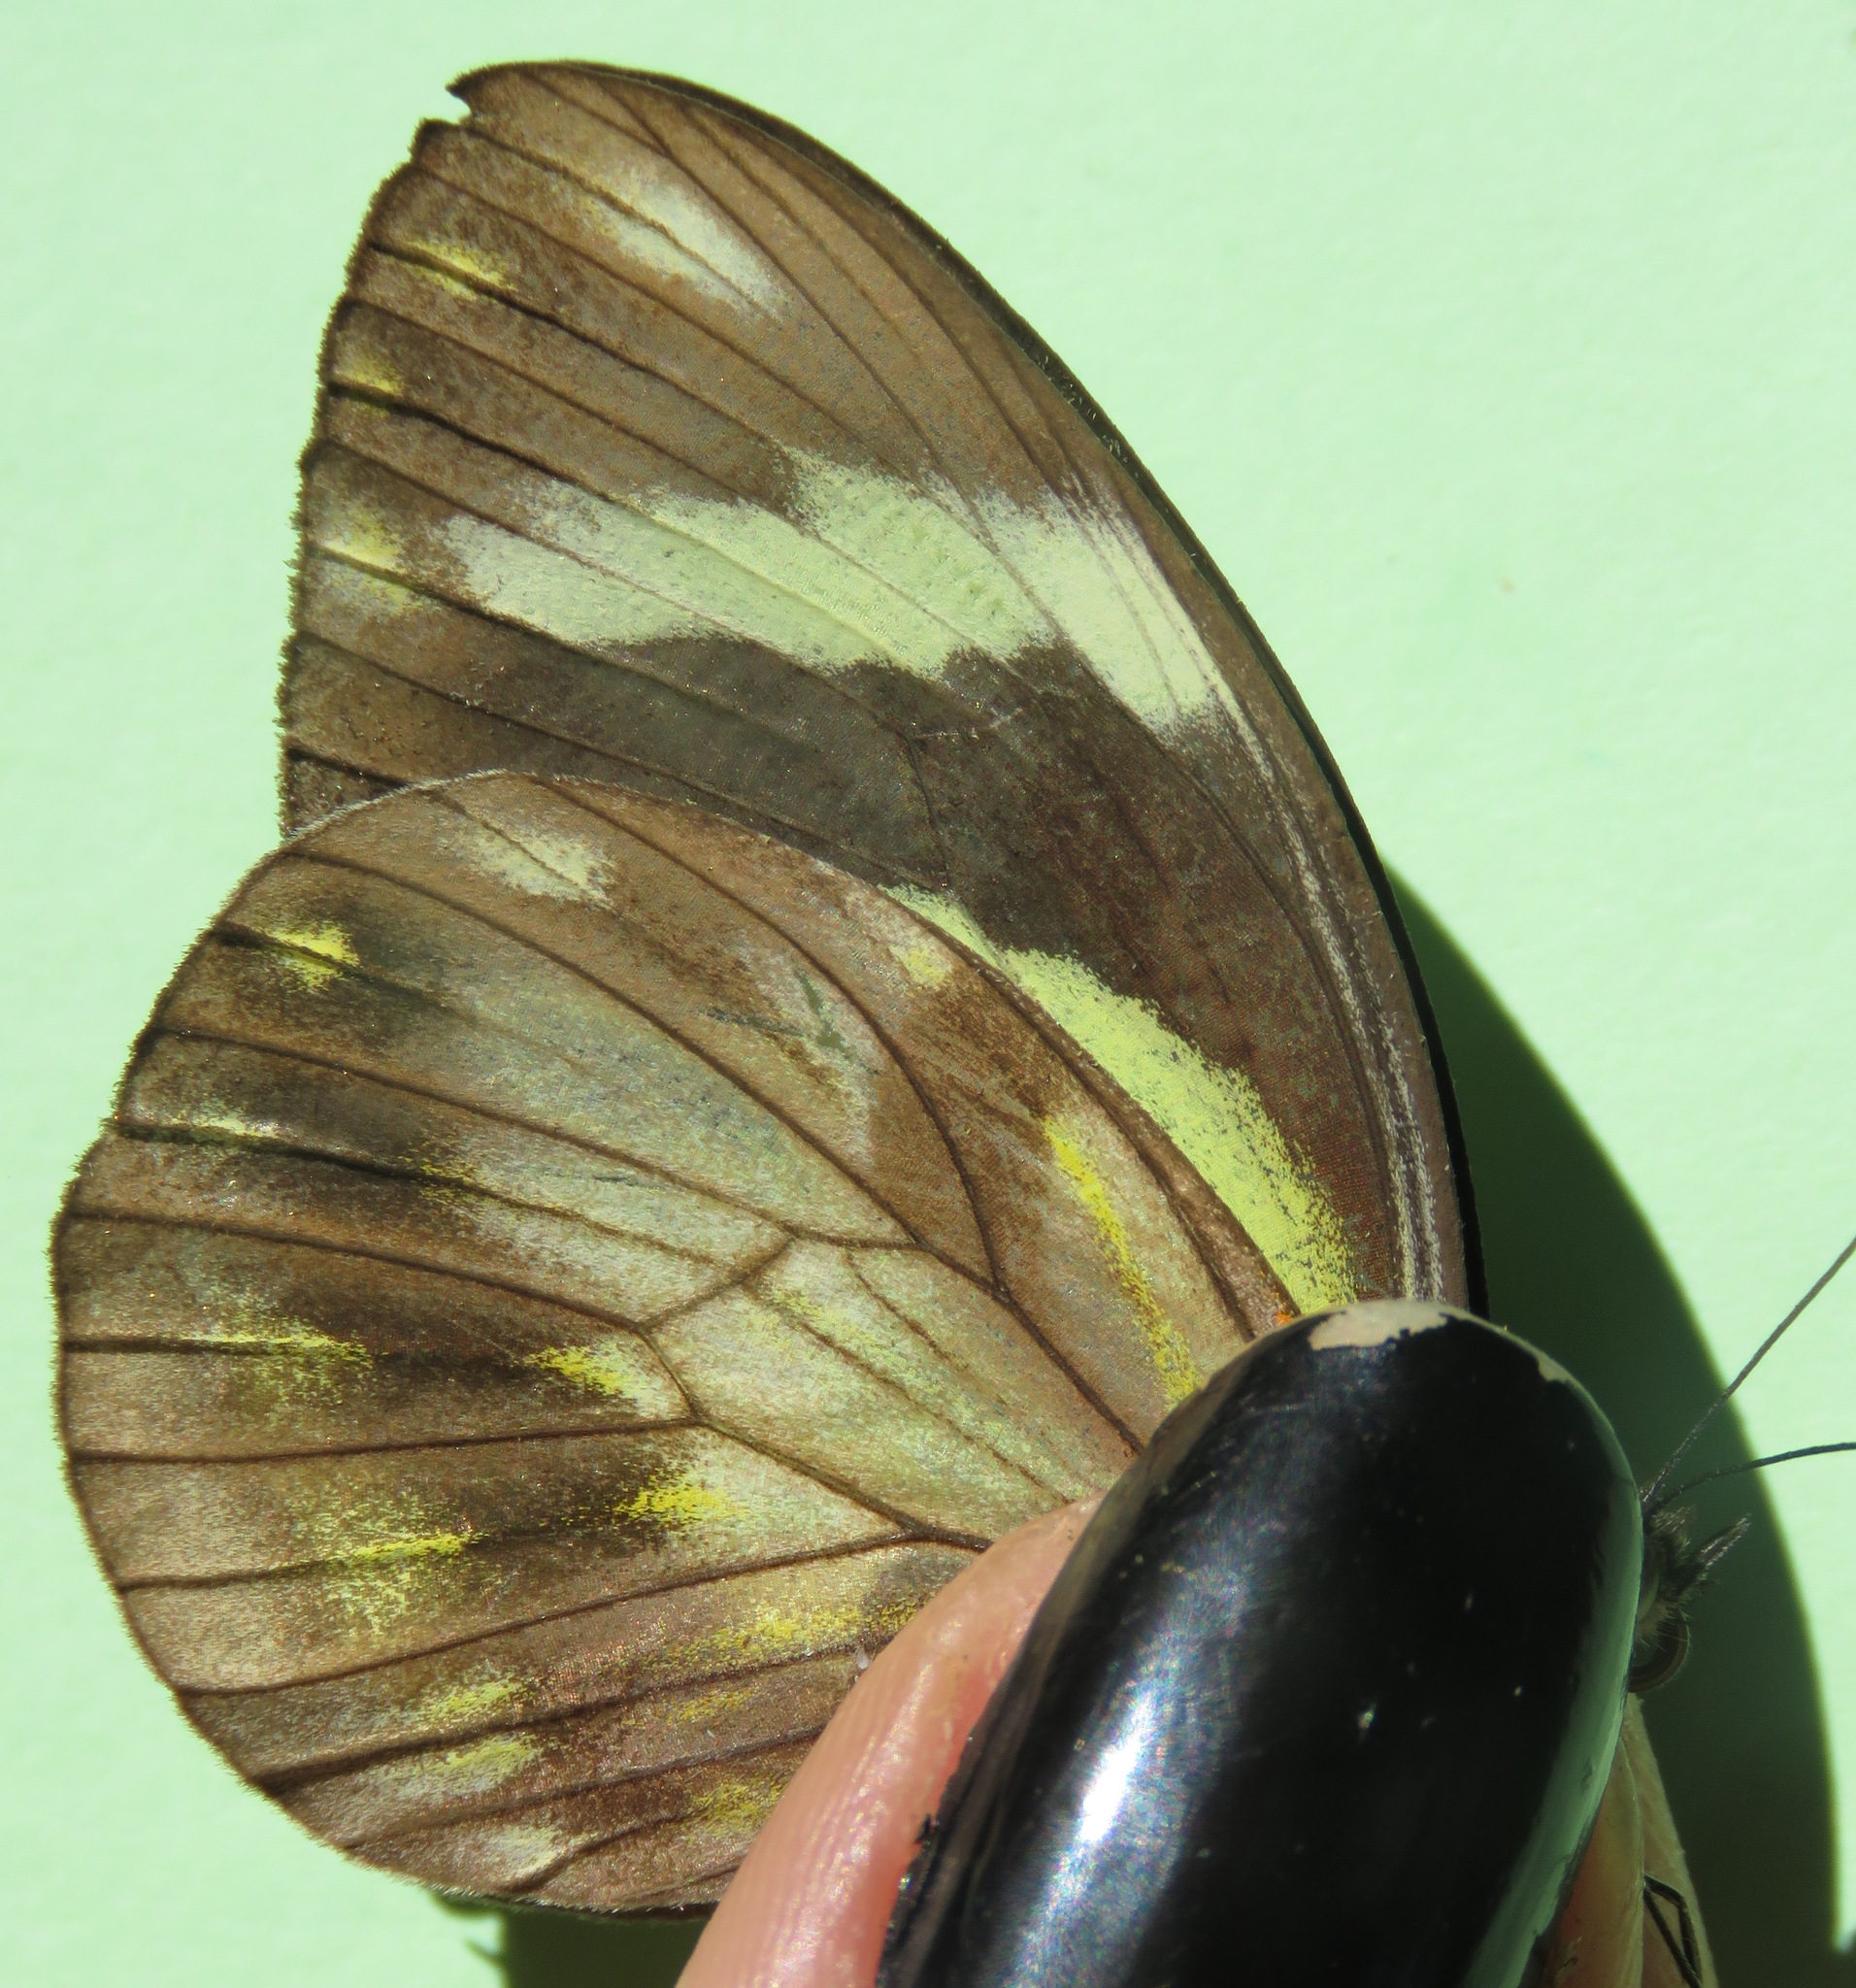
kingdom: Animalia
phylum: Arthropoda
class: Insecta
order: Lepidoptera
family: Pieridae
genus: Pieriballia
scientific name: Pieriballia viardi
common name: Painted white
